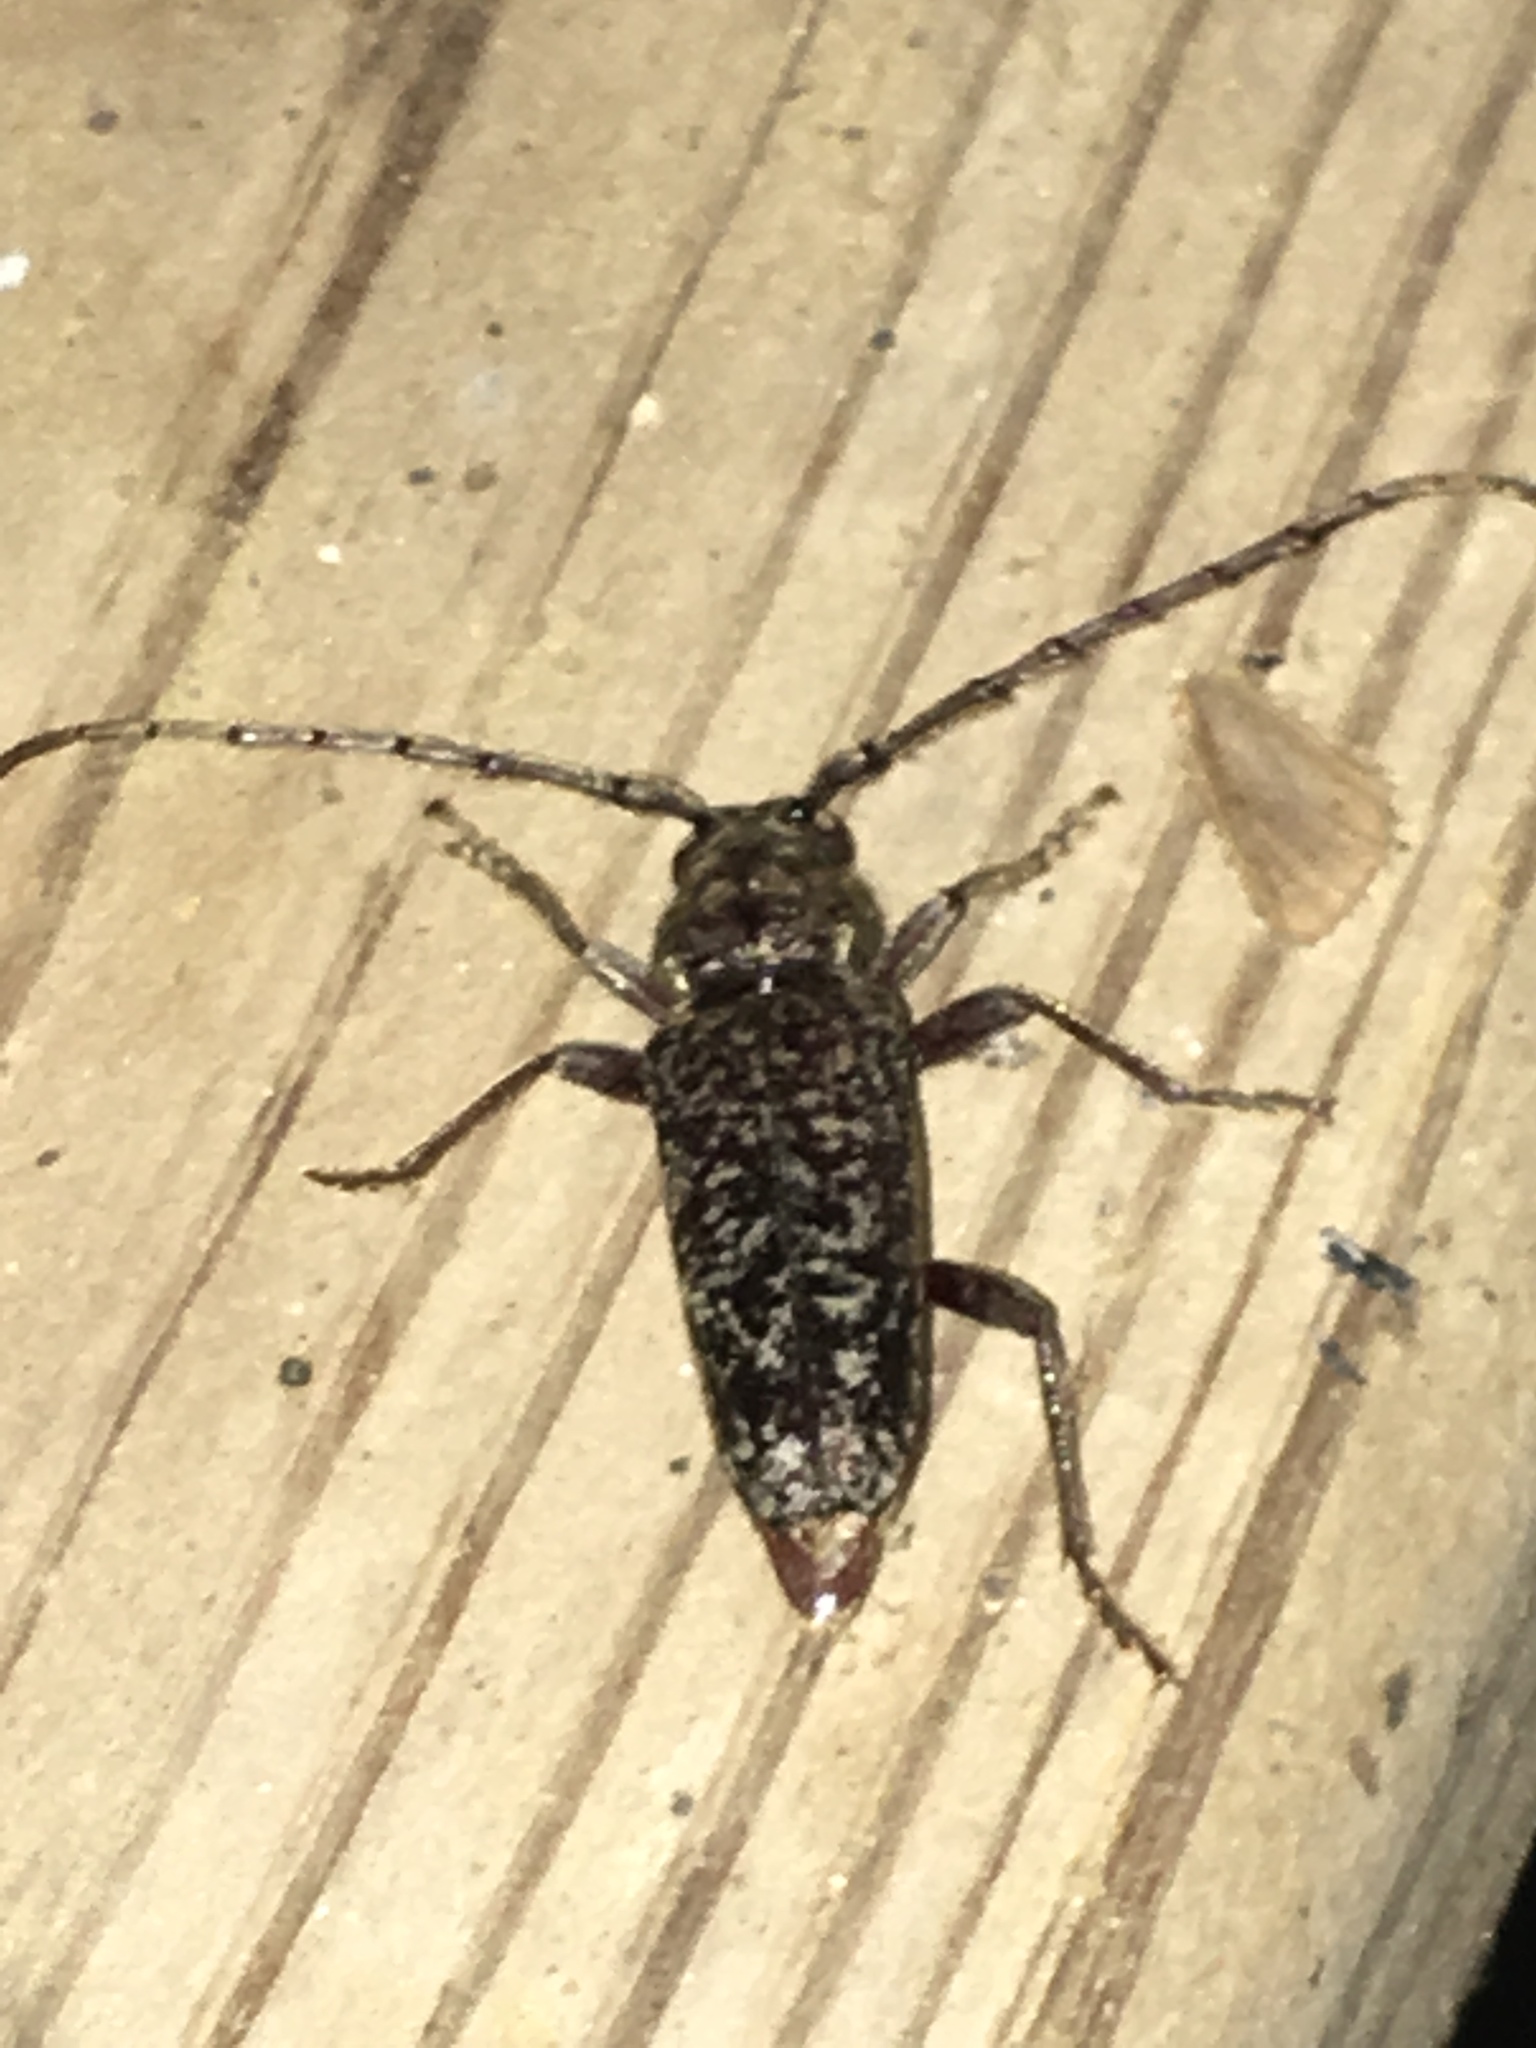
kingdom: Animalia
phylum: Arthropoda
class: Insecta
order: Coleoptera
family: Cerambycidae
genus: Enaphalodes
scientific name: Enaphalodes atomarius
